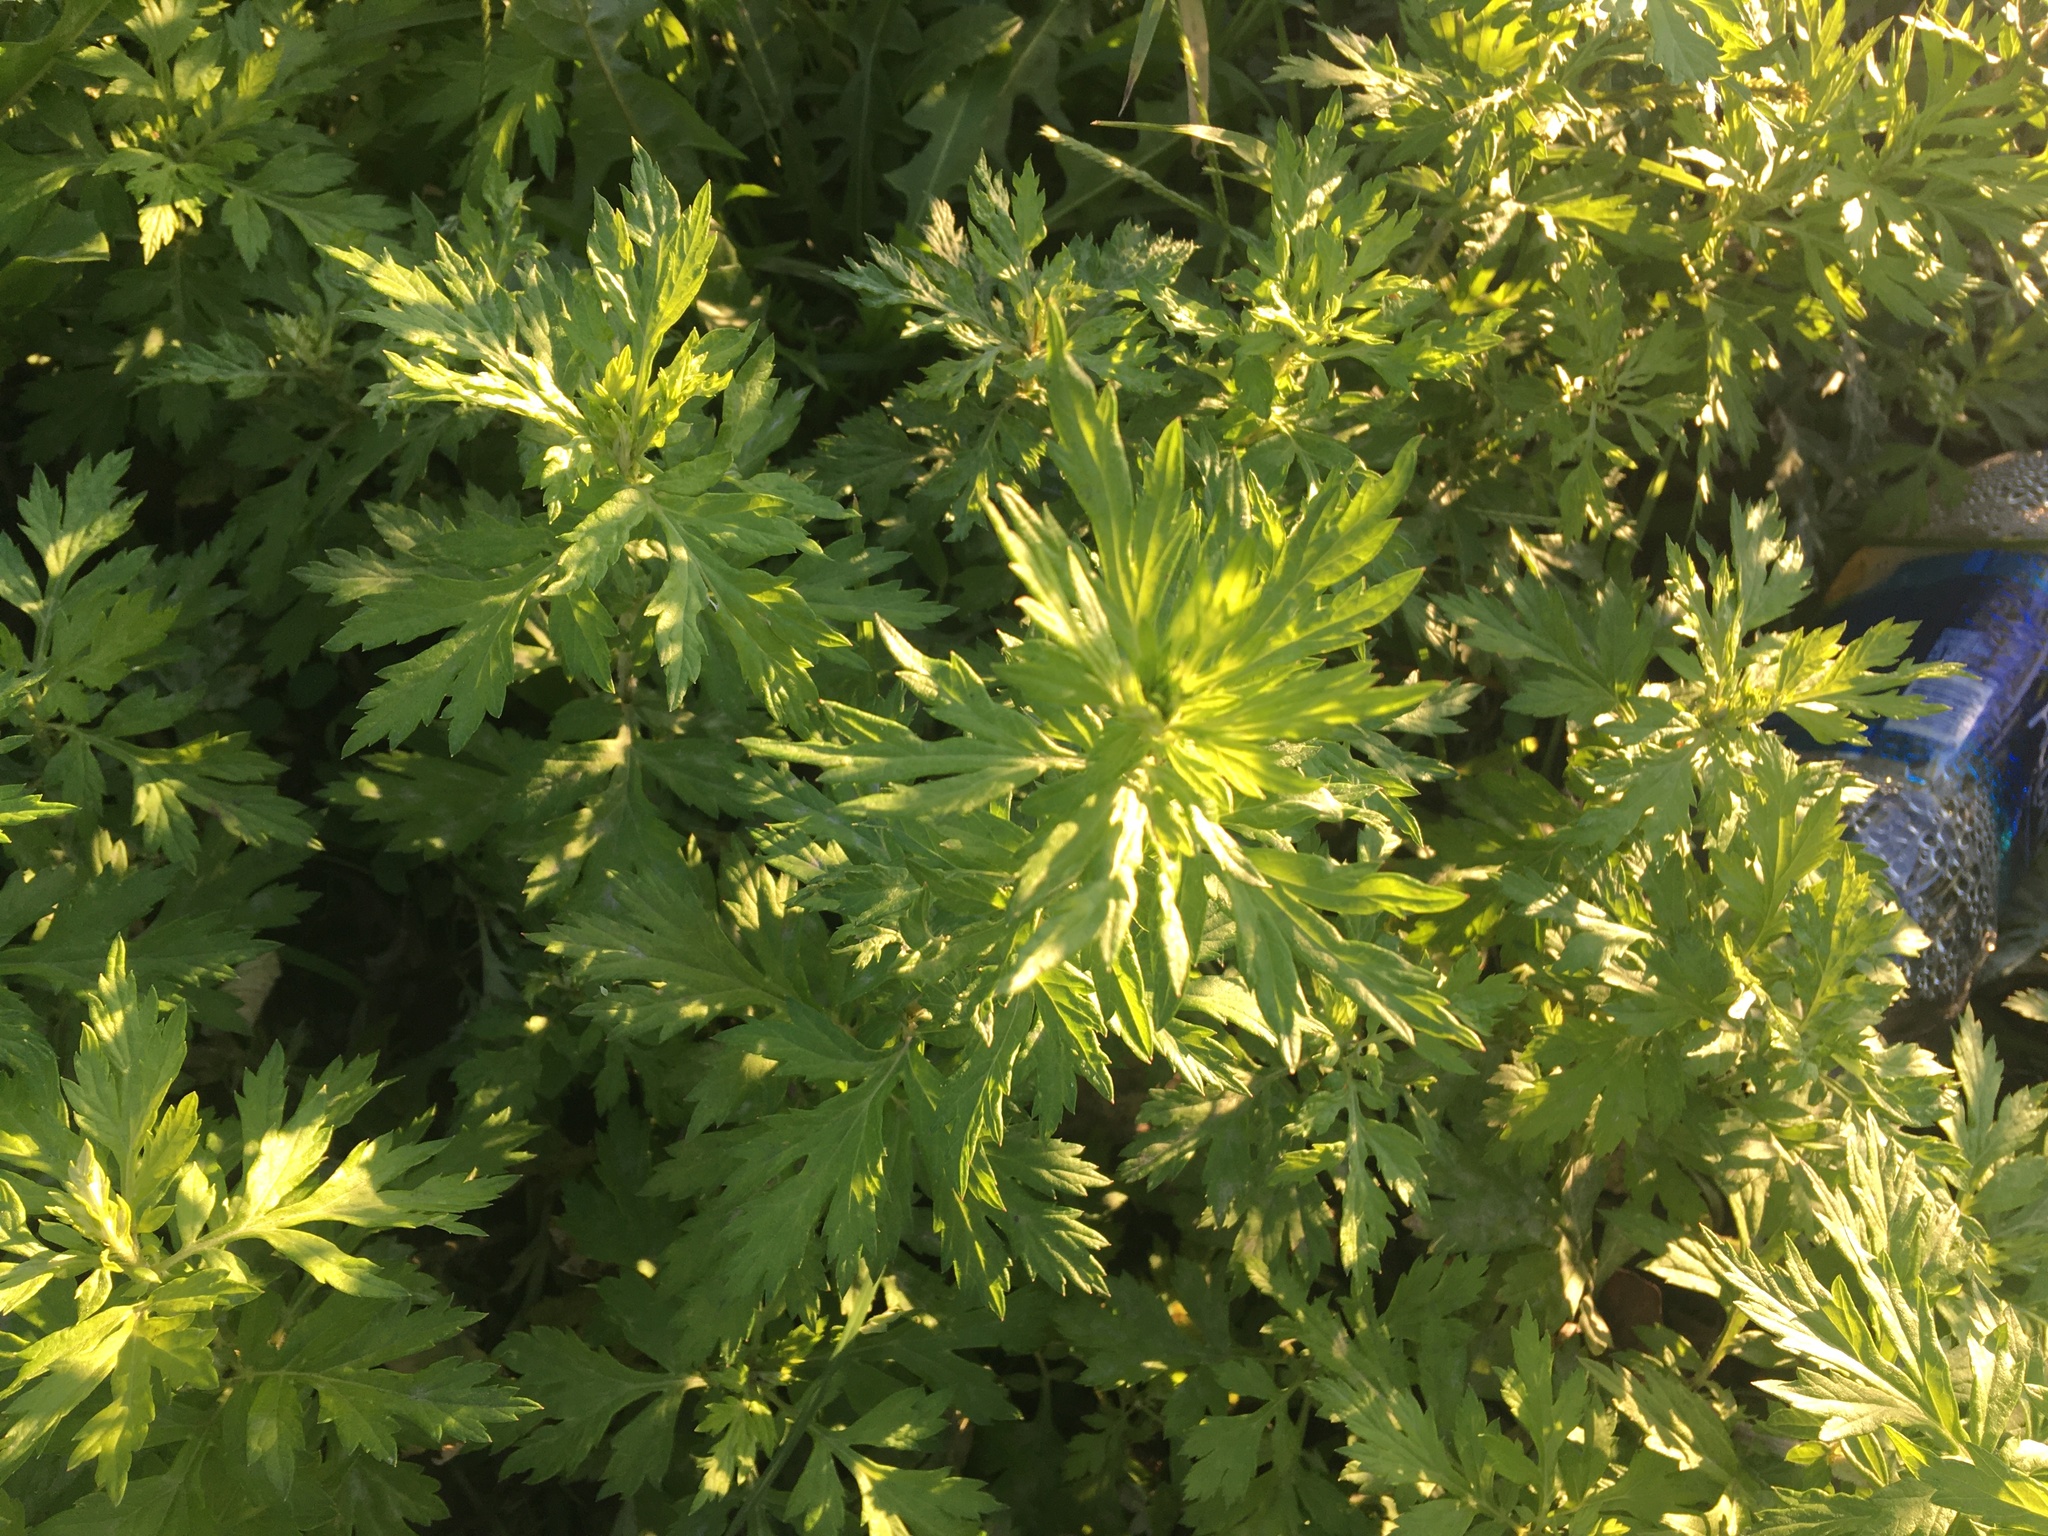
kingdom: Plantae
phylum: Tracheophyta
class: Magnoliopsida
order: Asterales
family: Asteraceae
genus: Artemisia
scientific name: Artemisia vulgaris
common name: Mugwort
